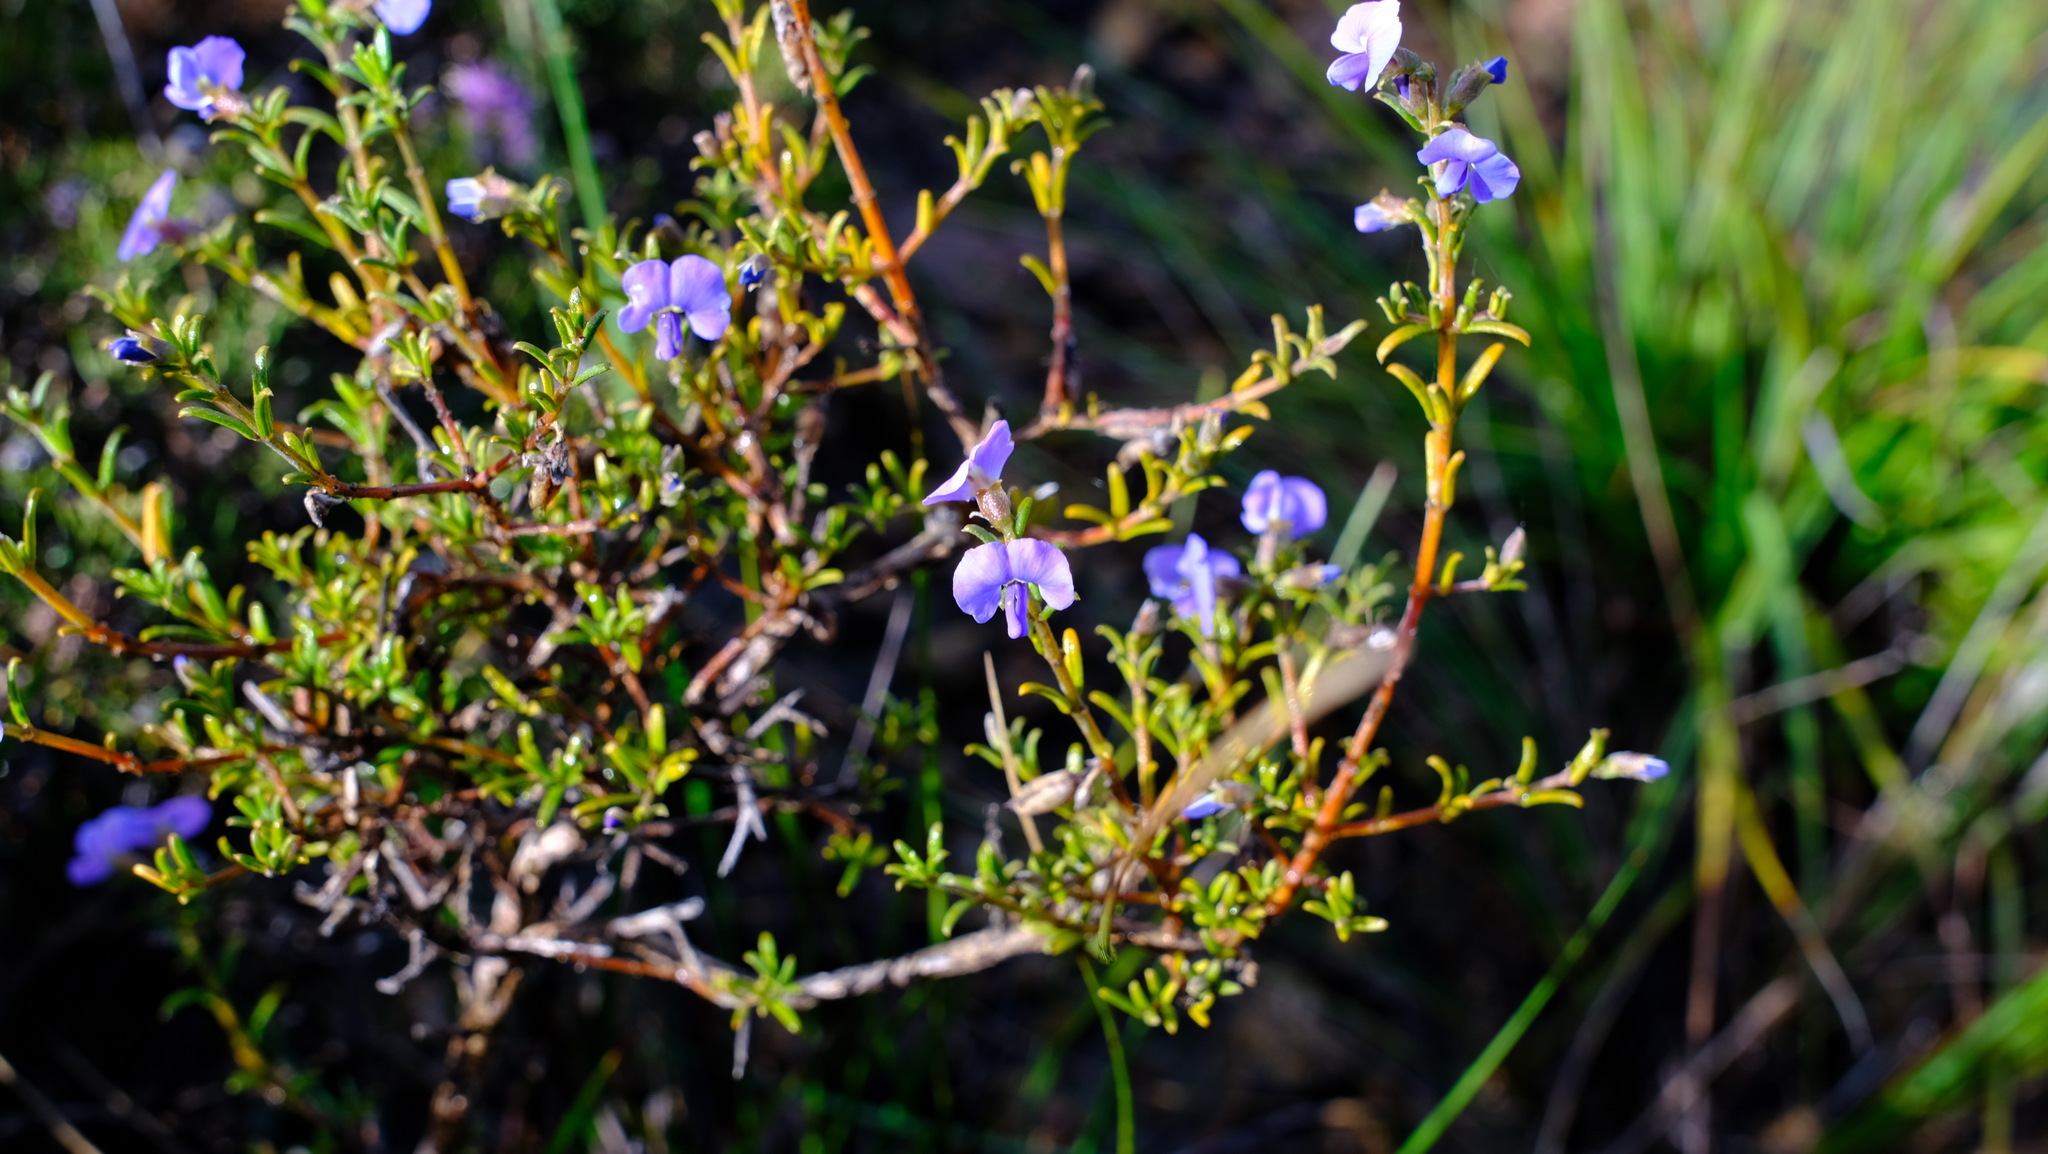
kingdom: Plantae
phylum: Tracheophyta
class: Magnoliopsida
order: Fabales
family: Fabaceae
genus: Mirbelia
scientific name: Mirbelia floribunda
